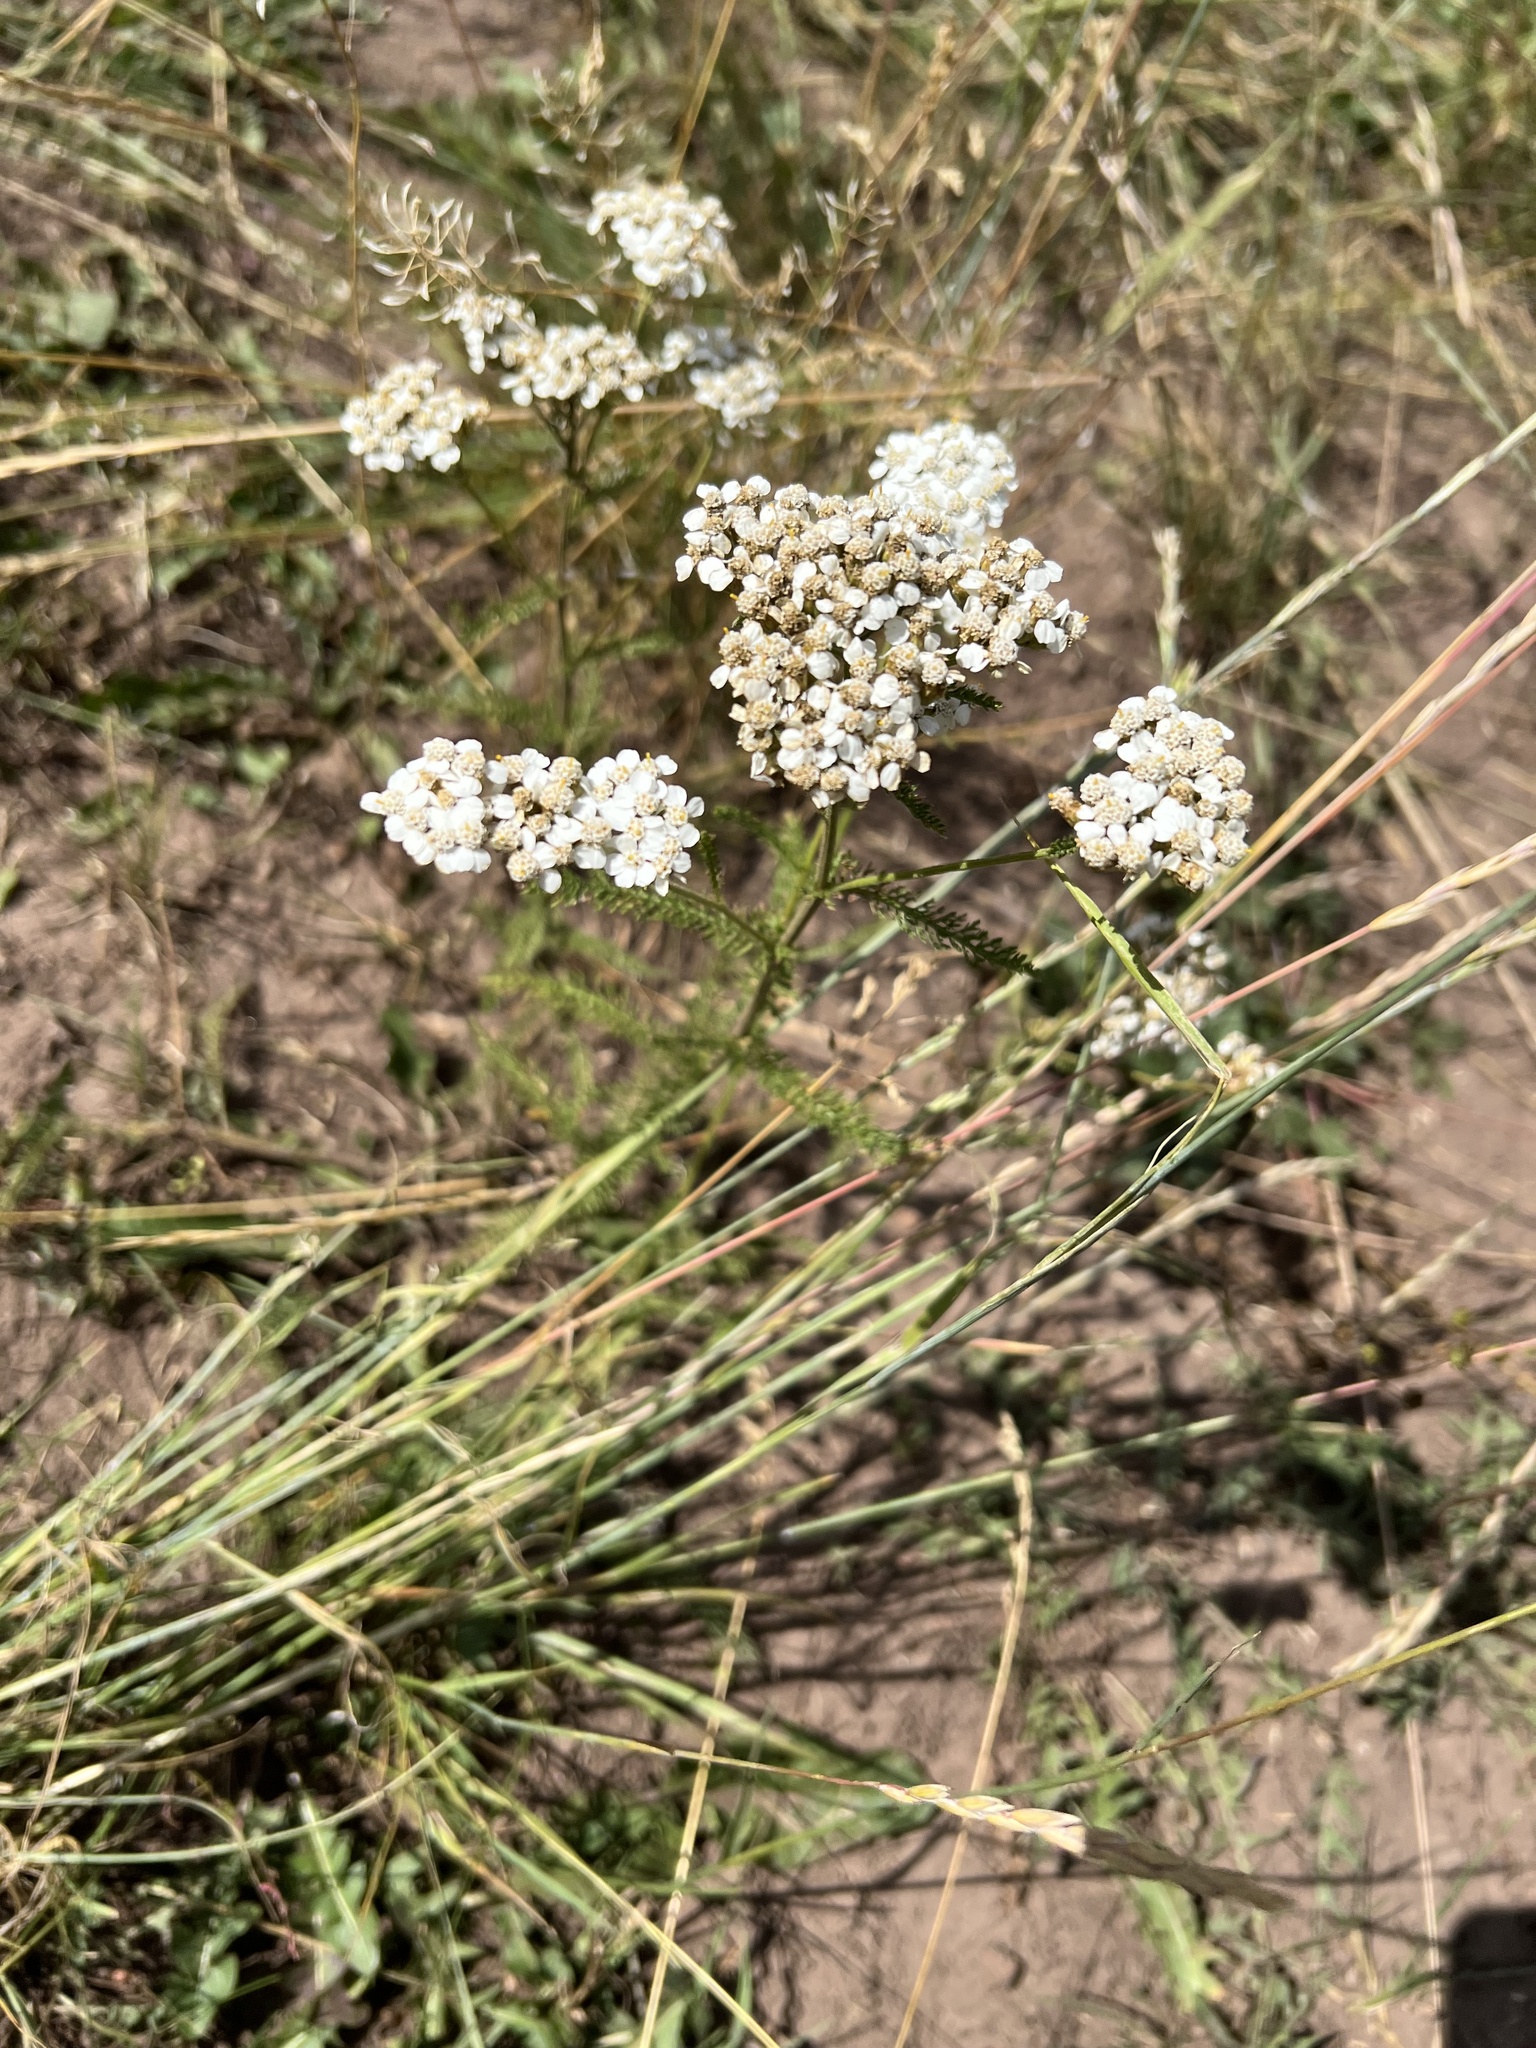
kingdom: Plantae
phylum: Tracheophyta
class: Magnoliopsida
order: Asterales
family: Asteraceae
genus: Achillea
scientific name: Achillea millefolium
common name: Yarrow
